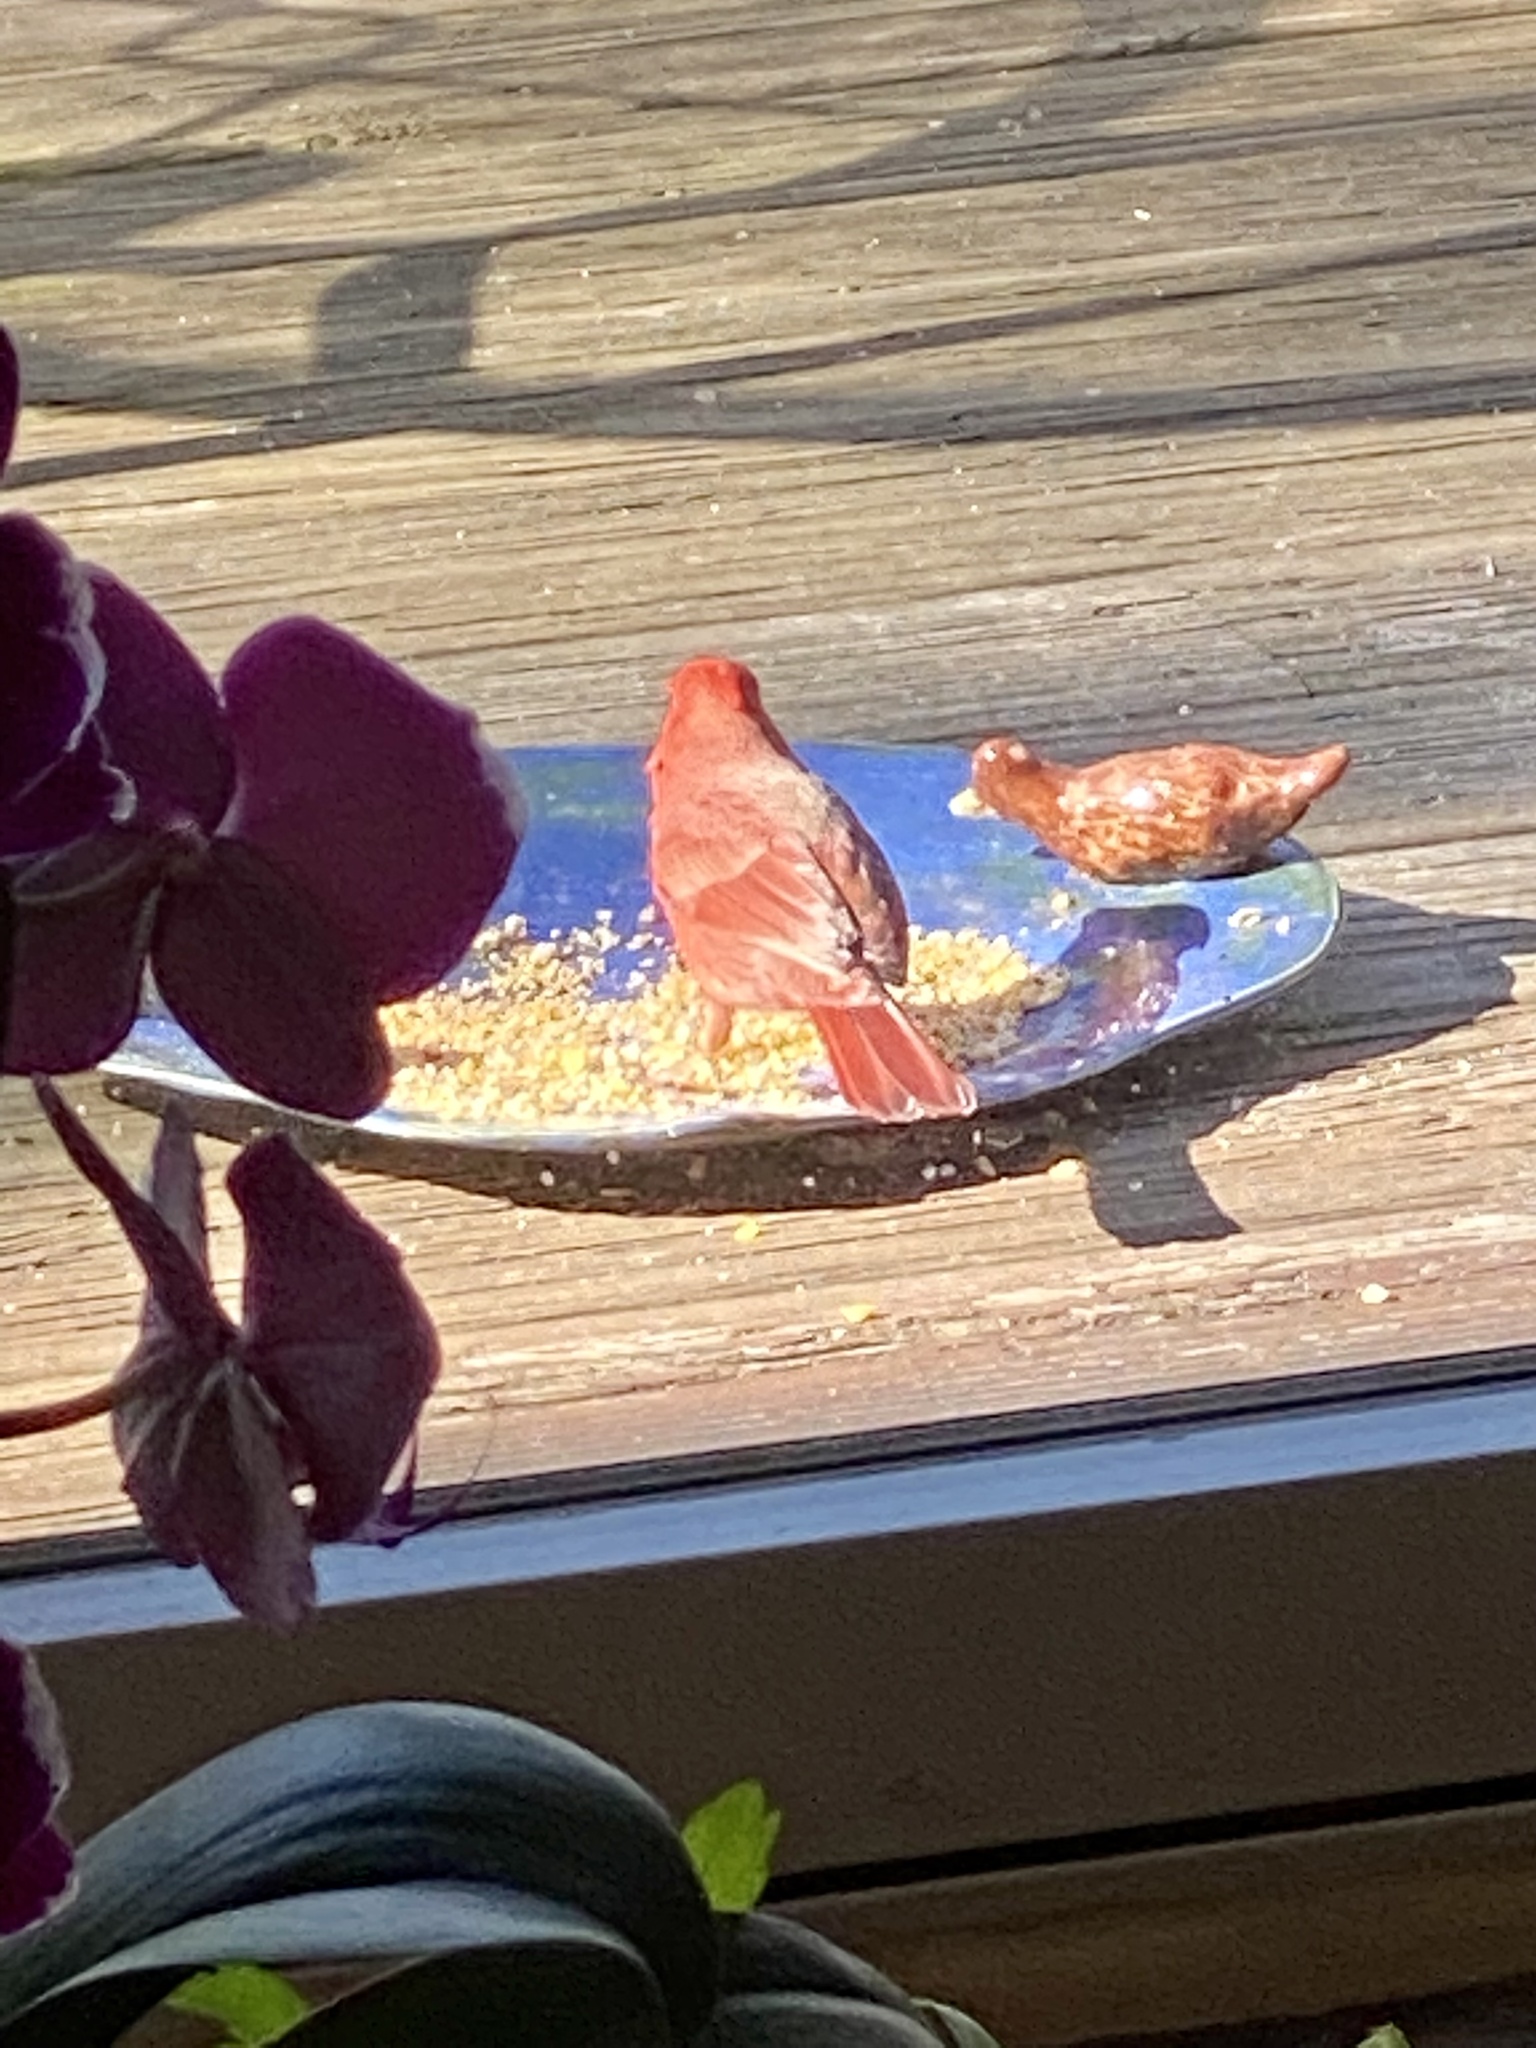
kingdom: Animalia
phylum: Chordata
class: Aves
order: Passeriformes
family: Cardinalidae
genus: Cardinalis
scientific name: Cardinalis cardinalis
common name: Northern cardinal
